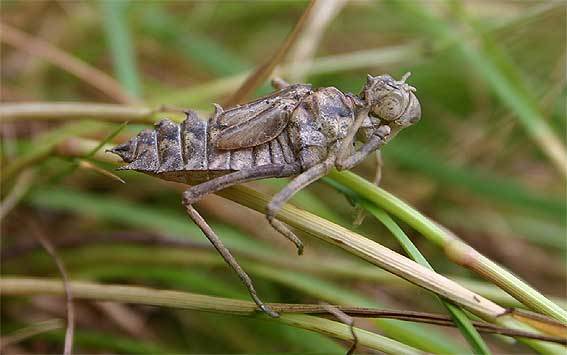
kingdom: Animalia
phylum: Arthropoda
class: Insecta
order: Odonata
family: Corduliidae
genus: Epitheca
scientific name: Epitheca bimaculata
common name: Eurasian baskettail
